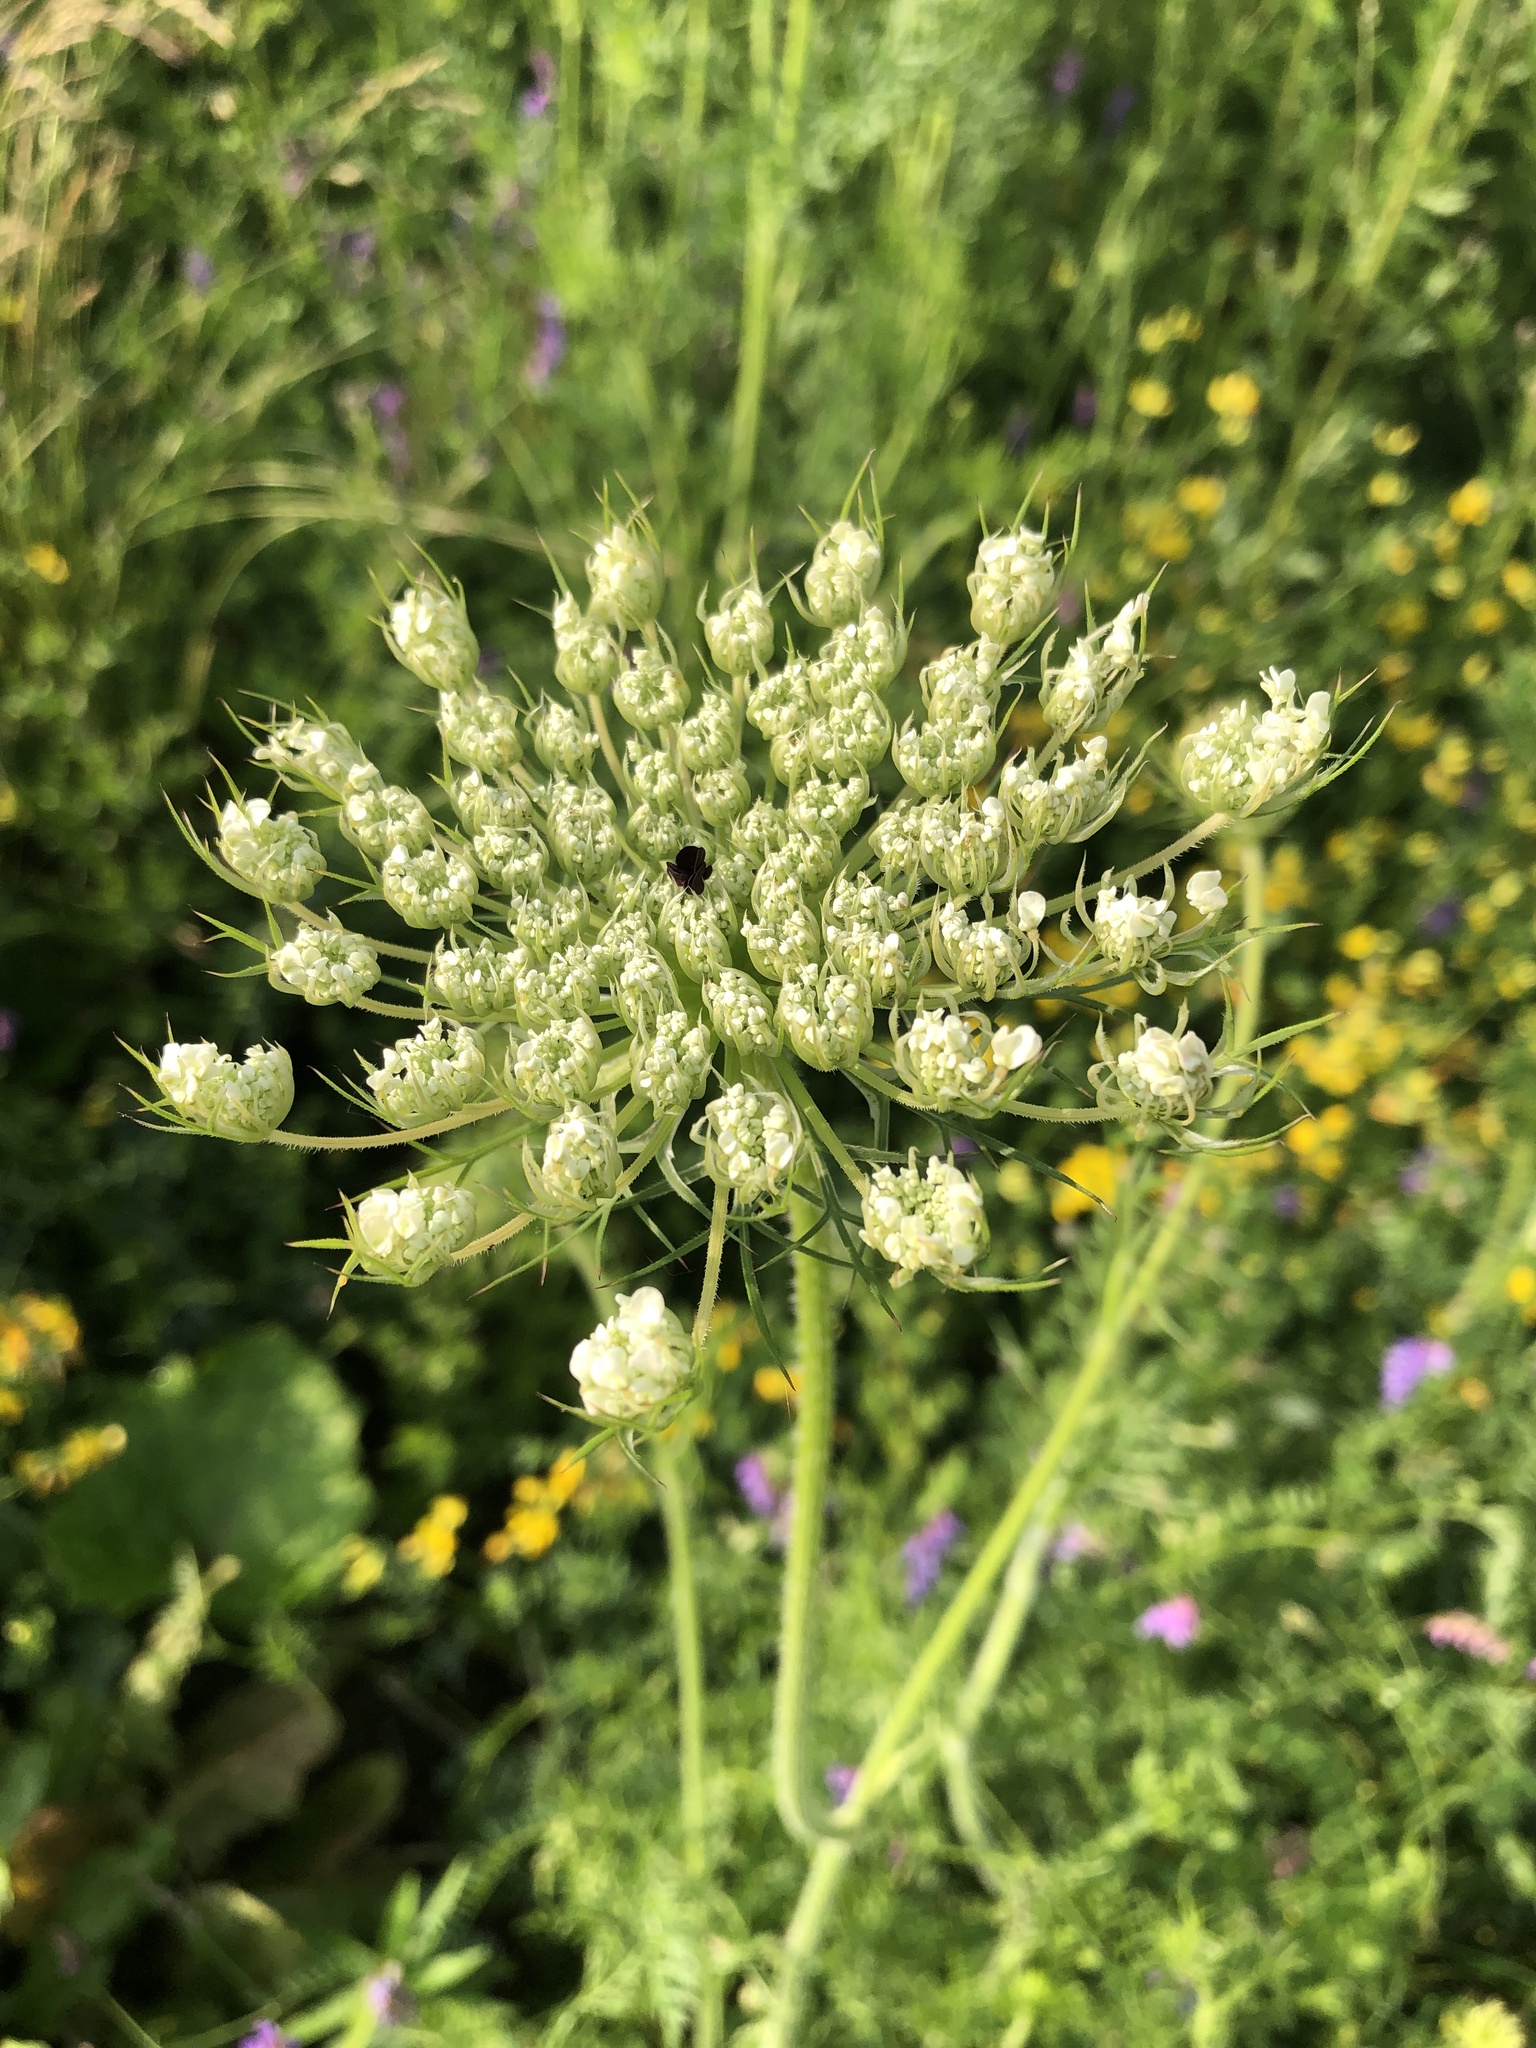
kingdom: Plantae
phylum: Tracheophyta
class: Magnoliopsida
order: Apiales
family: Apiaceae
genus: Daucus
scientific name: Daucus carota
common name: Wild carrot
